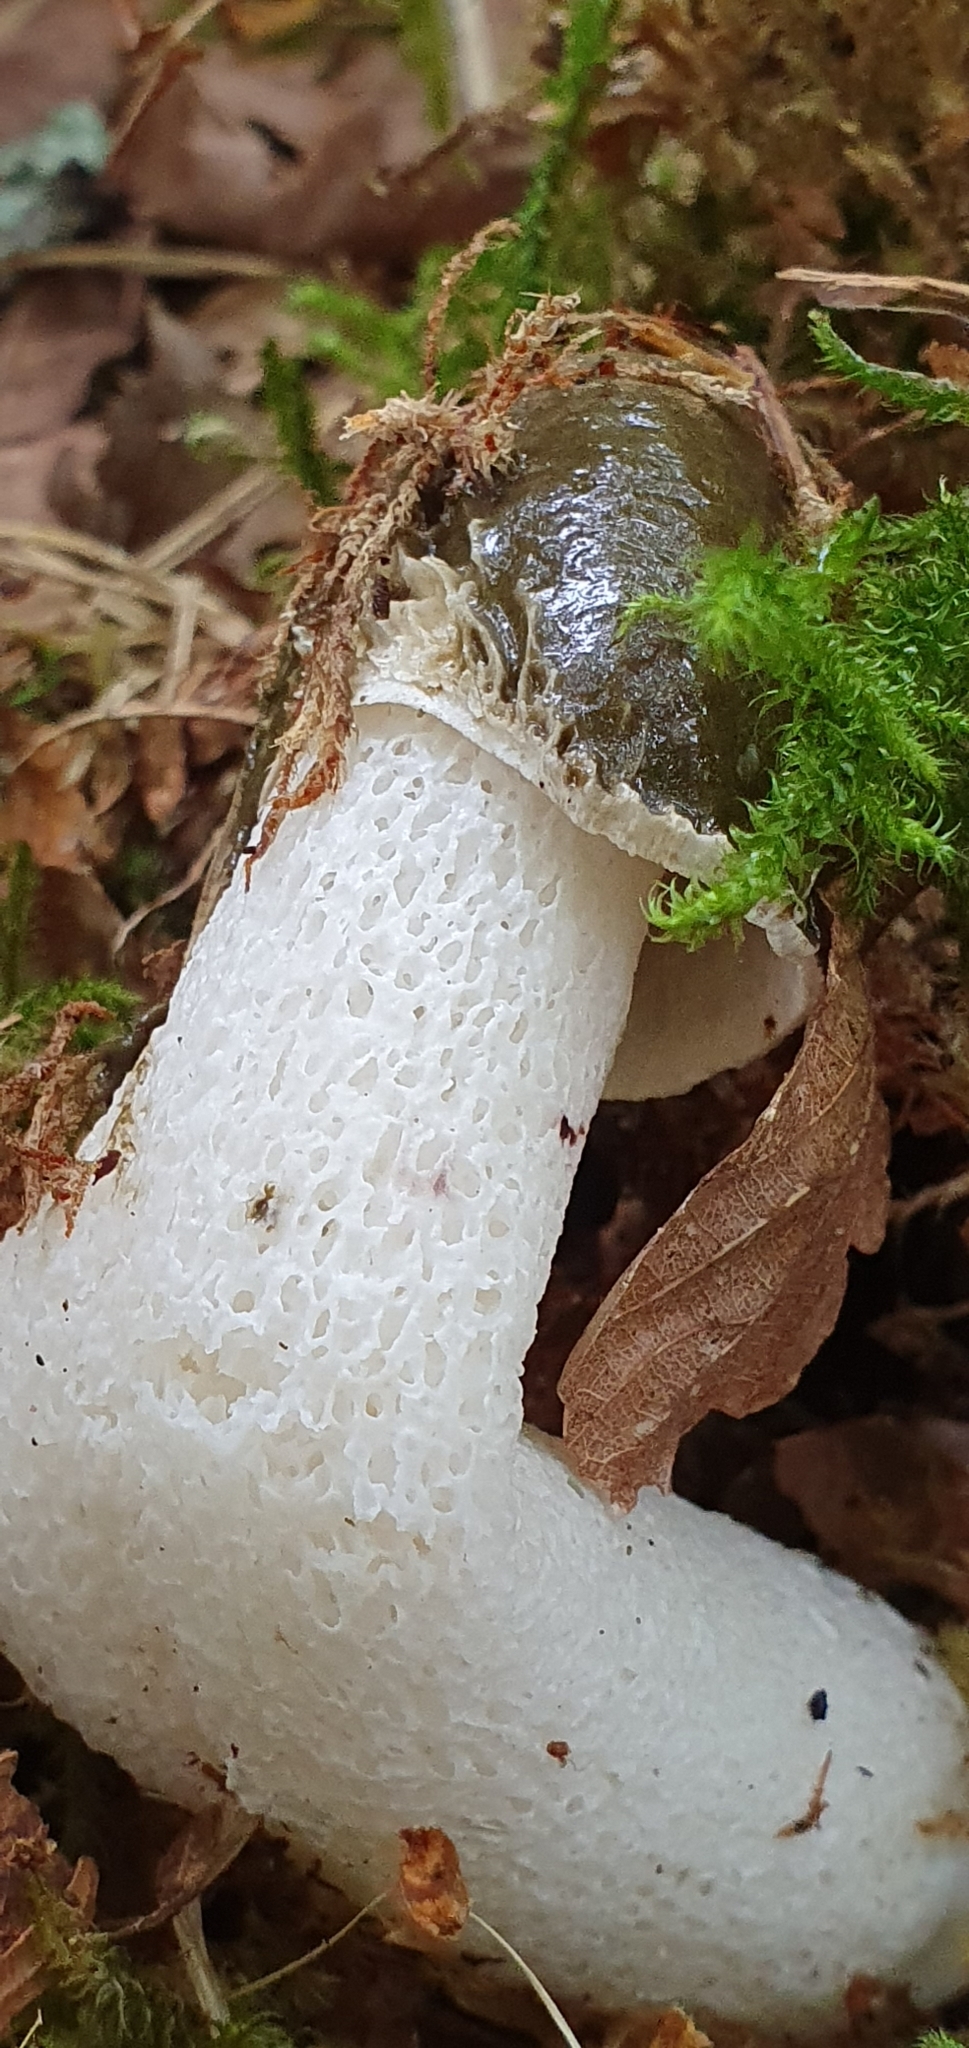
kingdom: Fungi
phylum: Basidiomycota
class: Agaricomycetes
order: Phallales
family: Phallaceae
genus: Phallus
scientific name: Phallus impudicus
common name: Common stinkhorn
